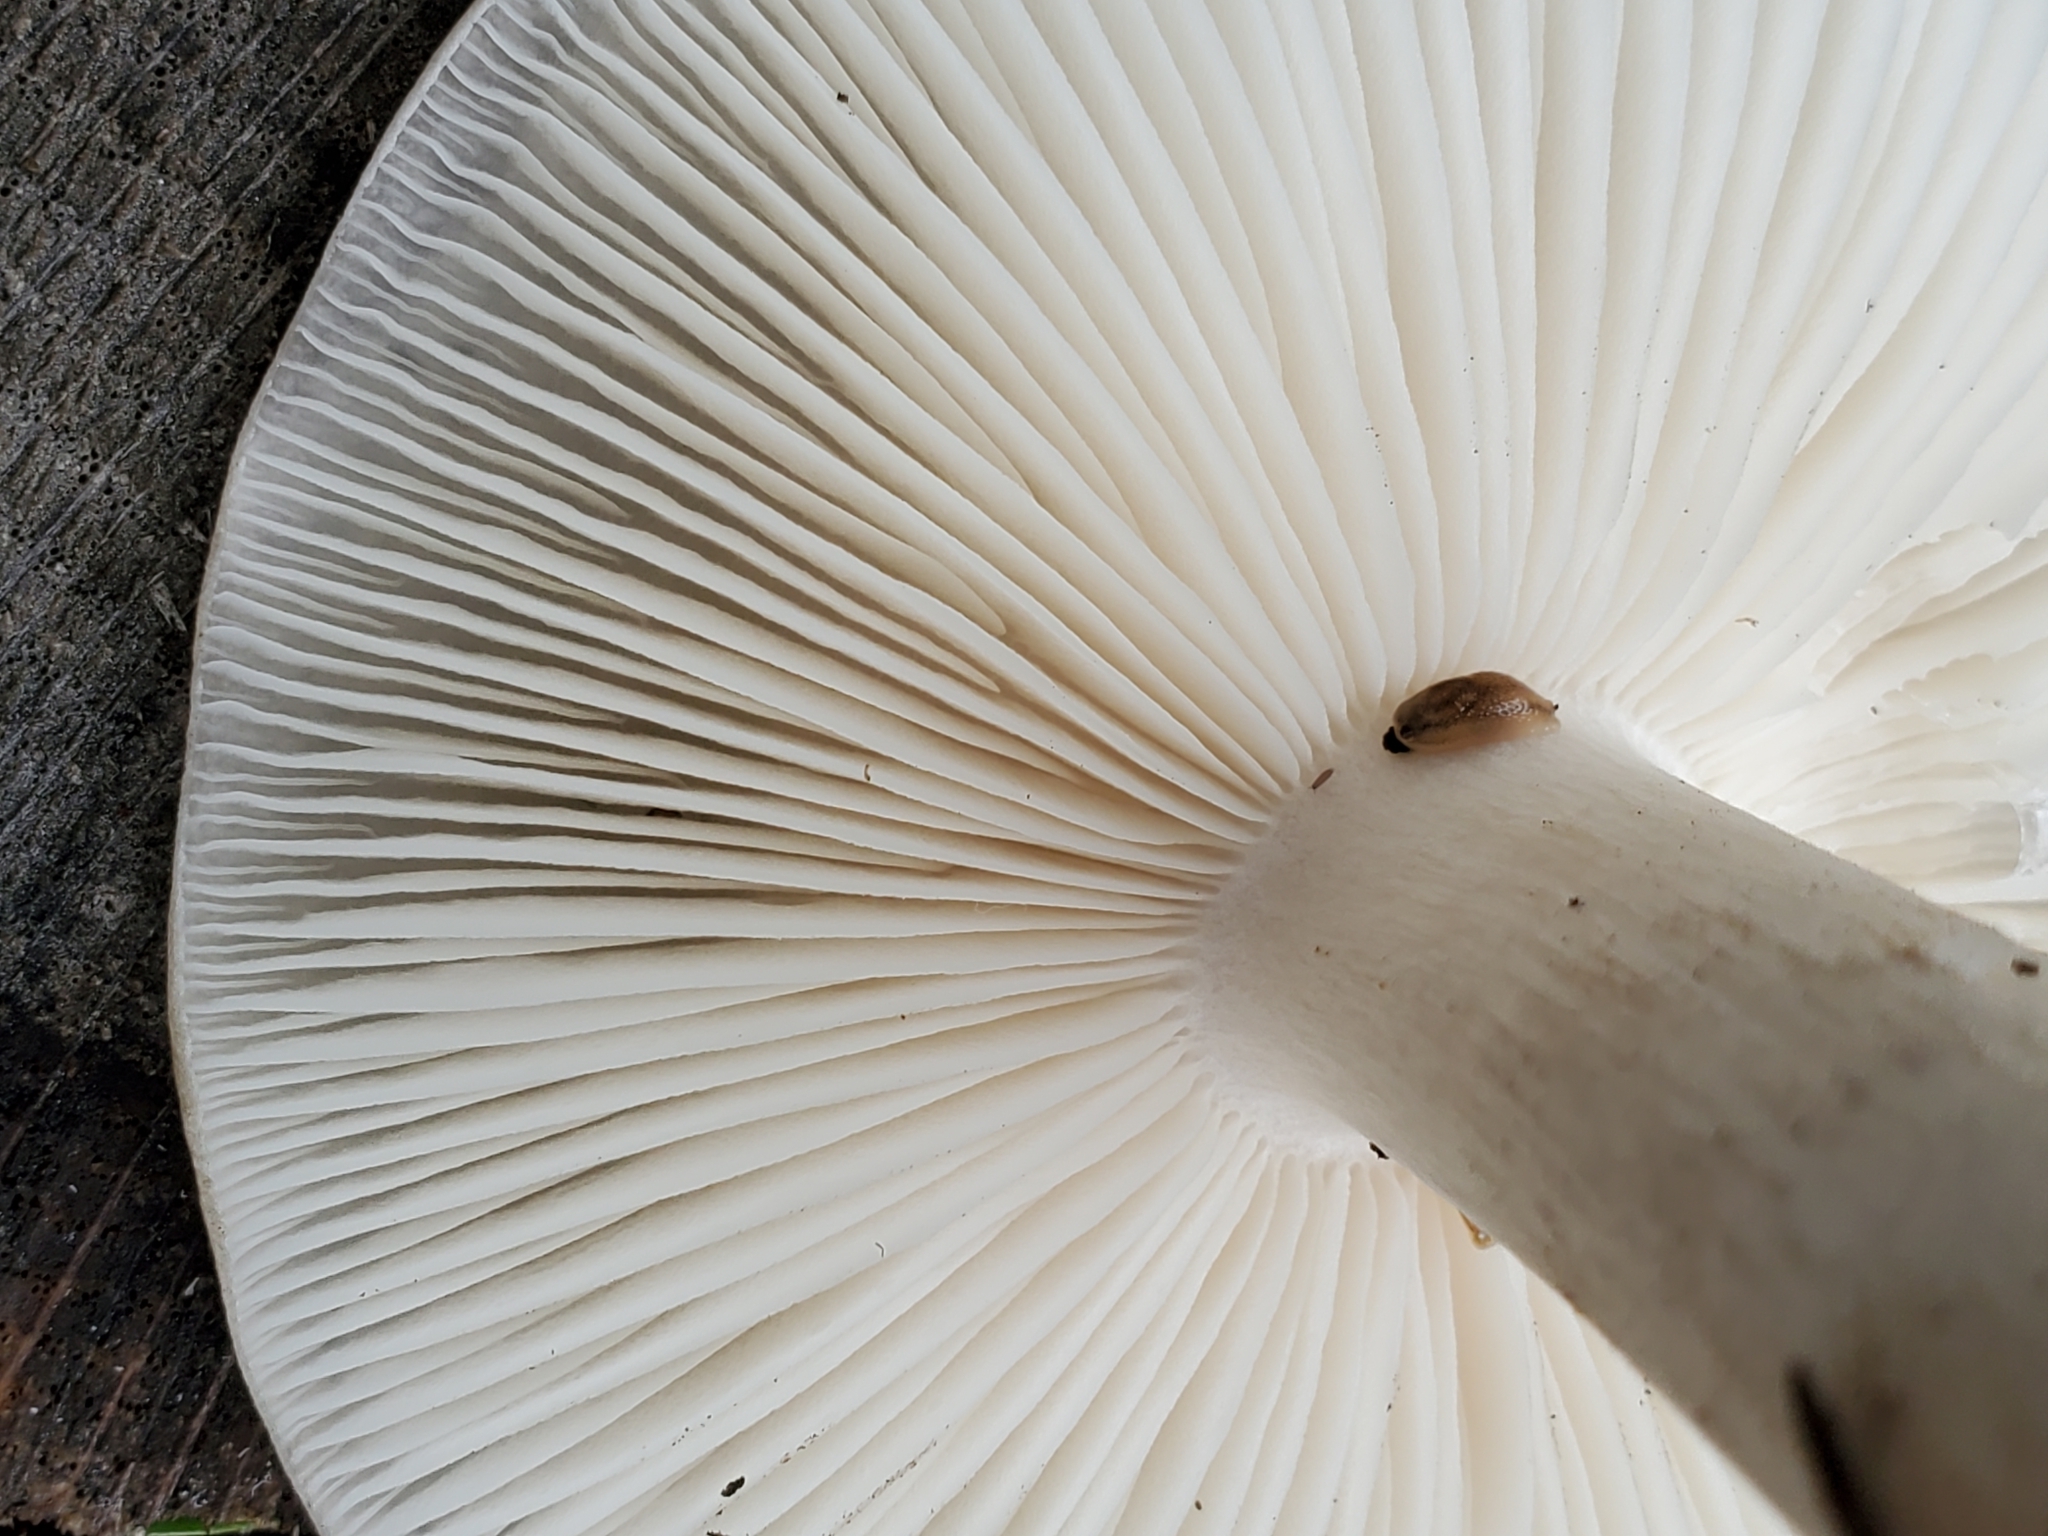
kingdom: Fungi
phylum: Basidiomycota
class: Agaricomycetes
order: Agaricales
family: Tricholomataceae
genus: Megacollybia
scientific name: Megacollybia rodmanii
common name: Eastern american platterful mushroom
